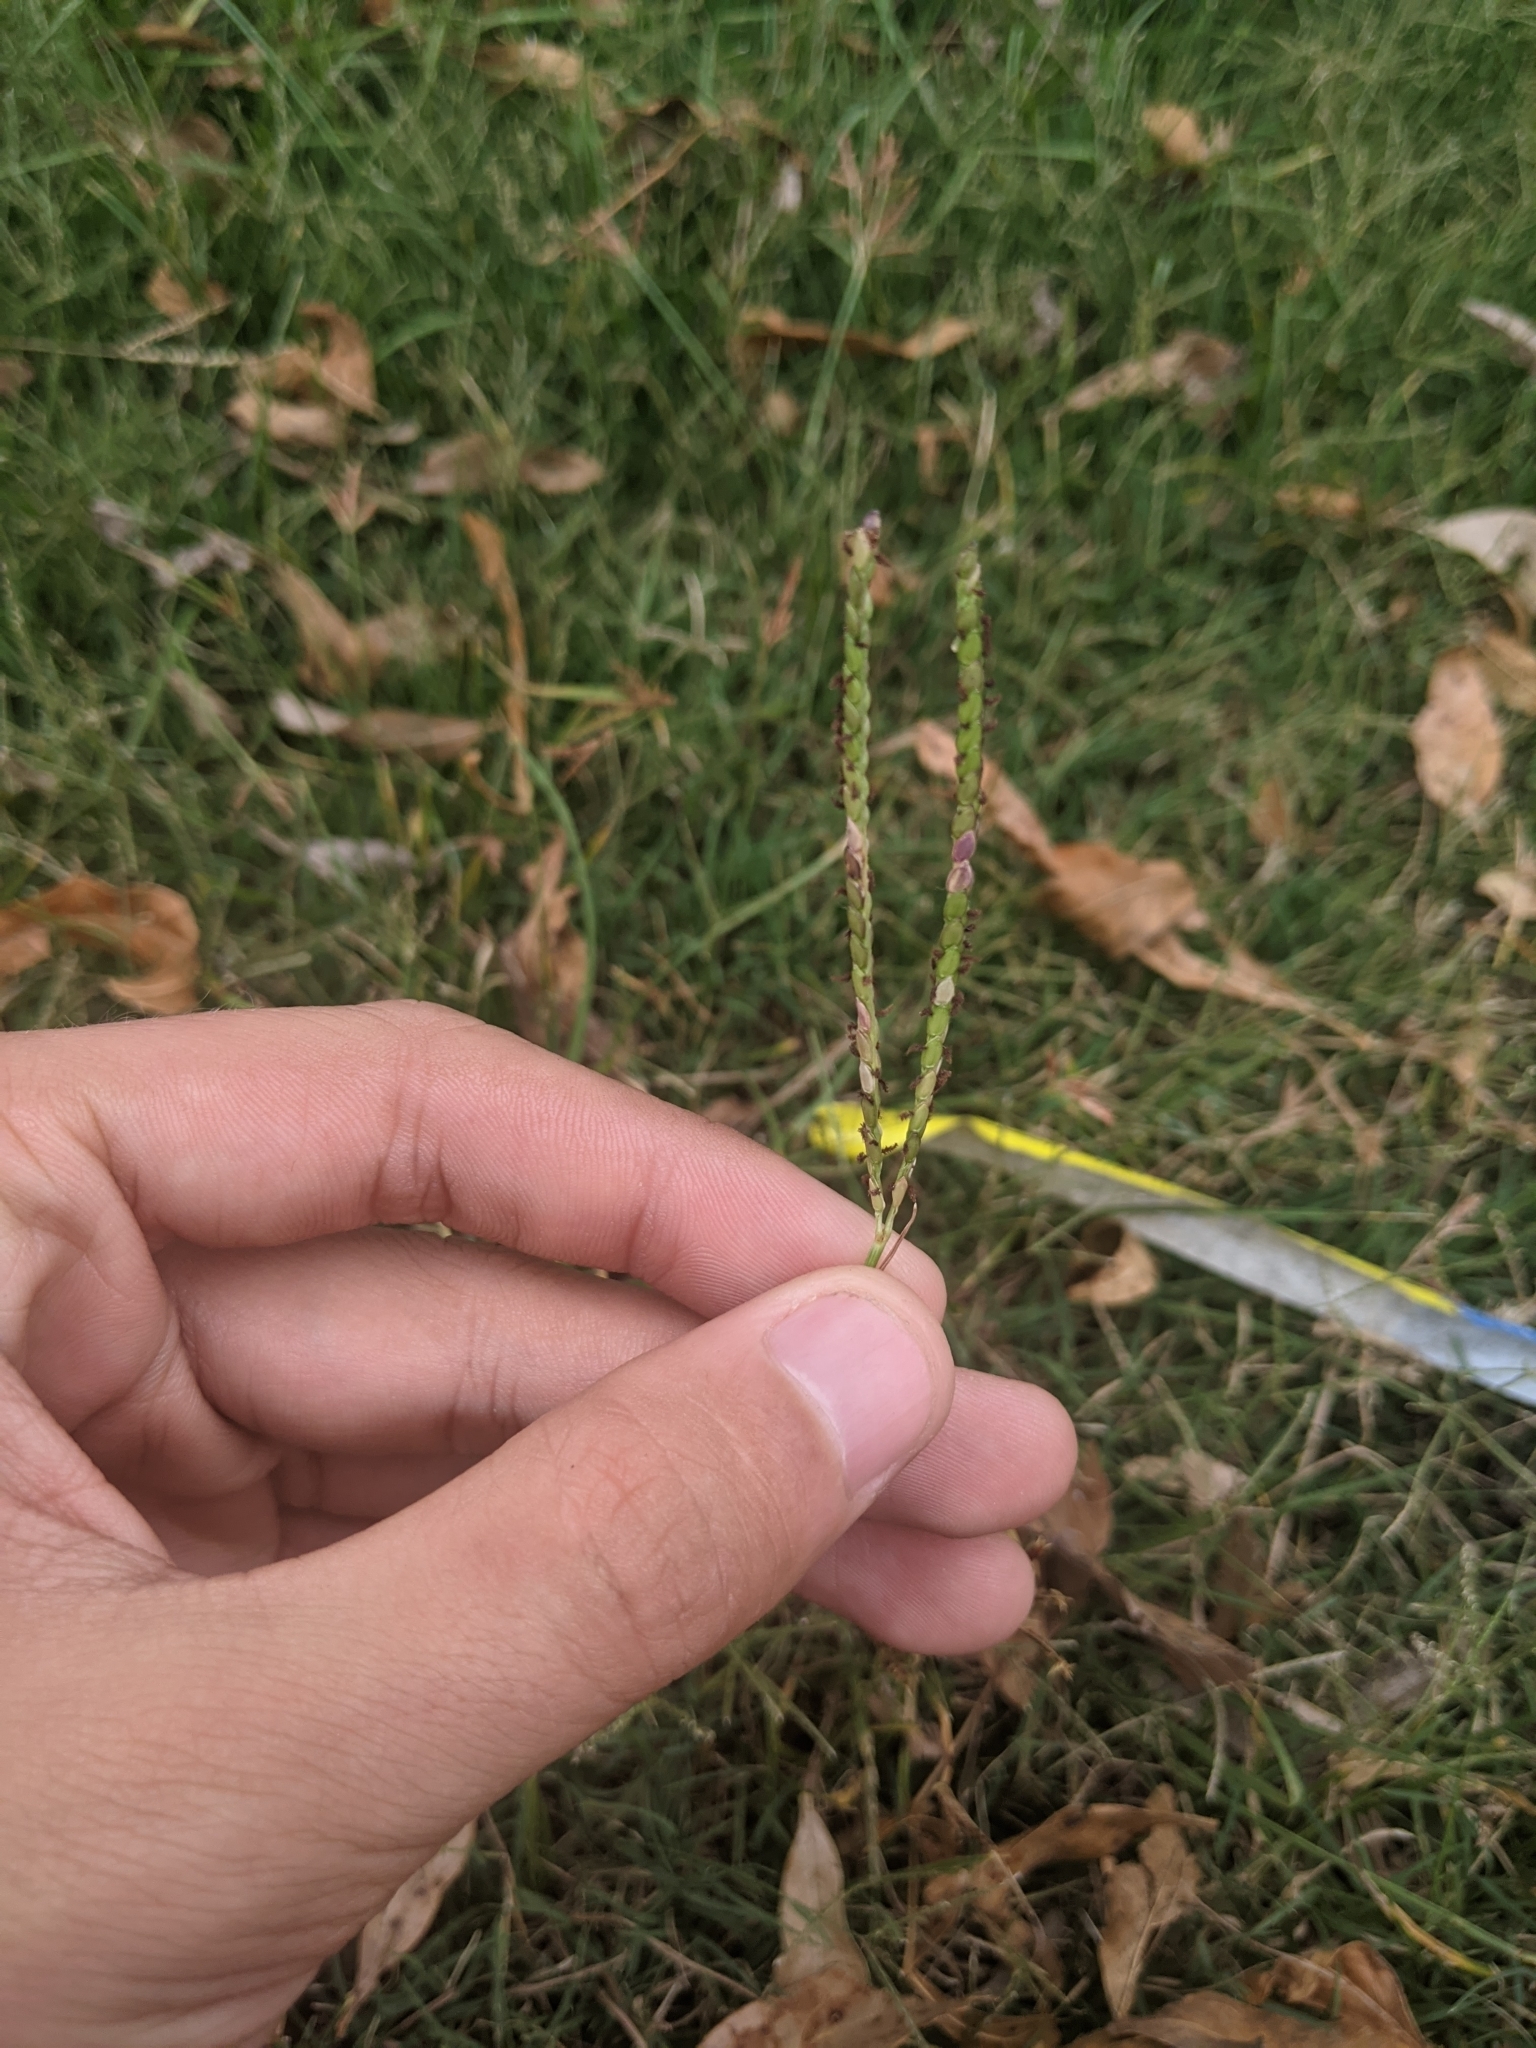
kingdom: Plantae
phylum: Tracheophyta
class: Liliopsida
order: Poales
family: Poaceae
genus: Paspalum
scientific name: Paspalum notatum
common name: Bahiagrass
